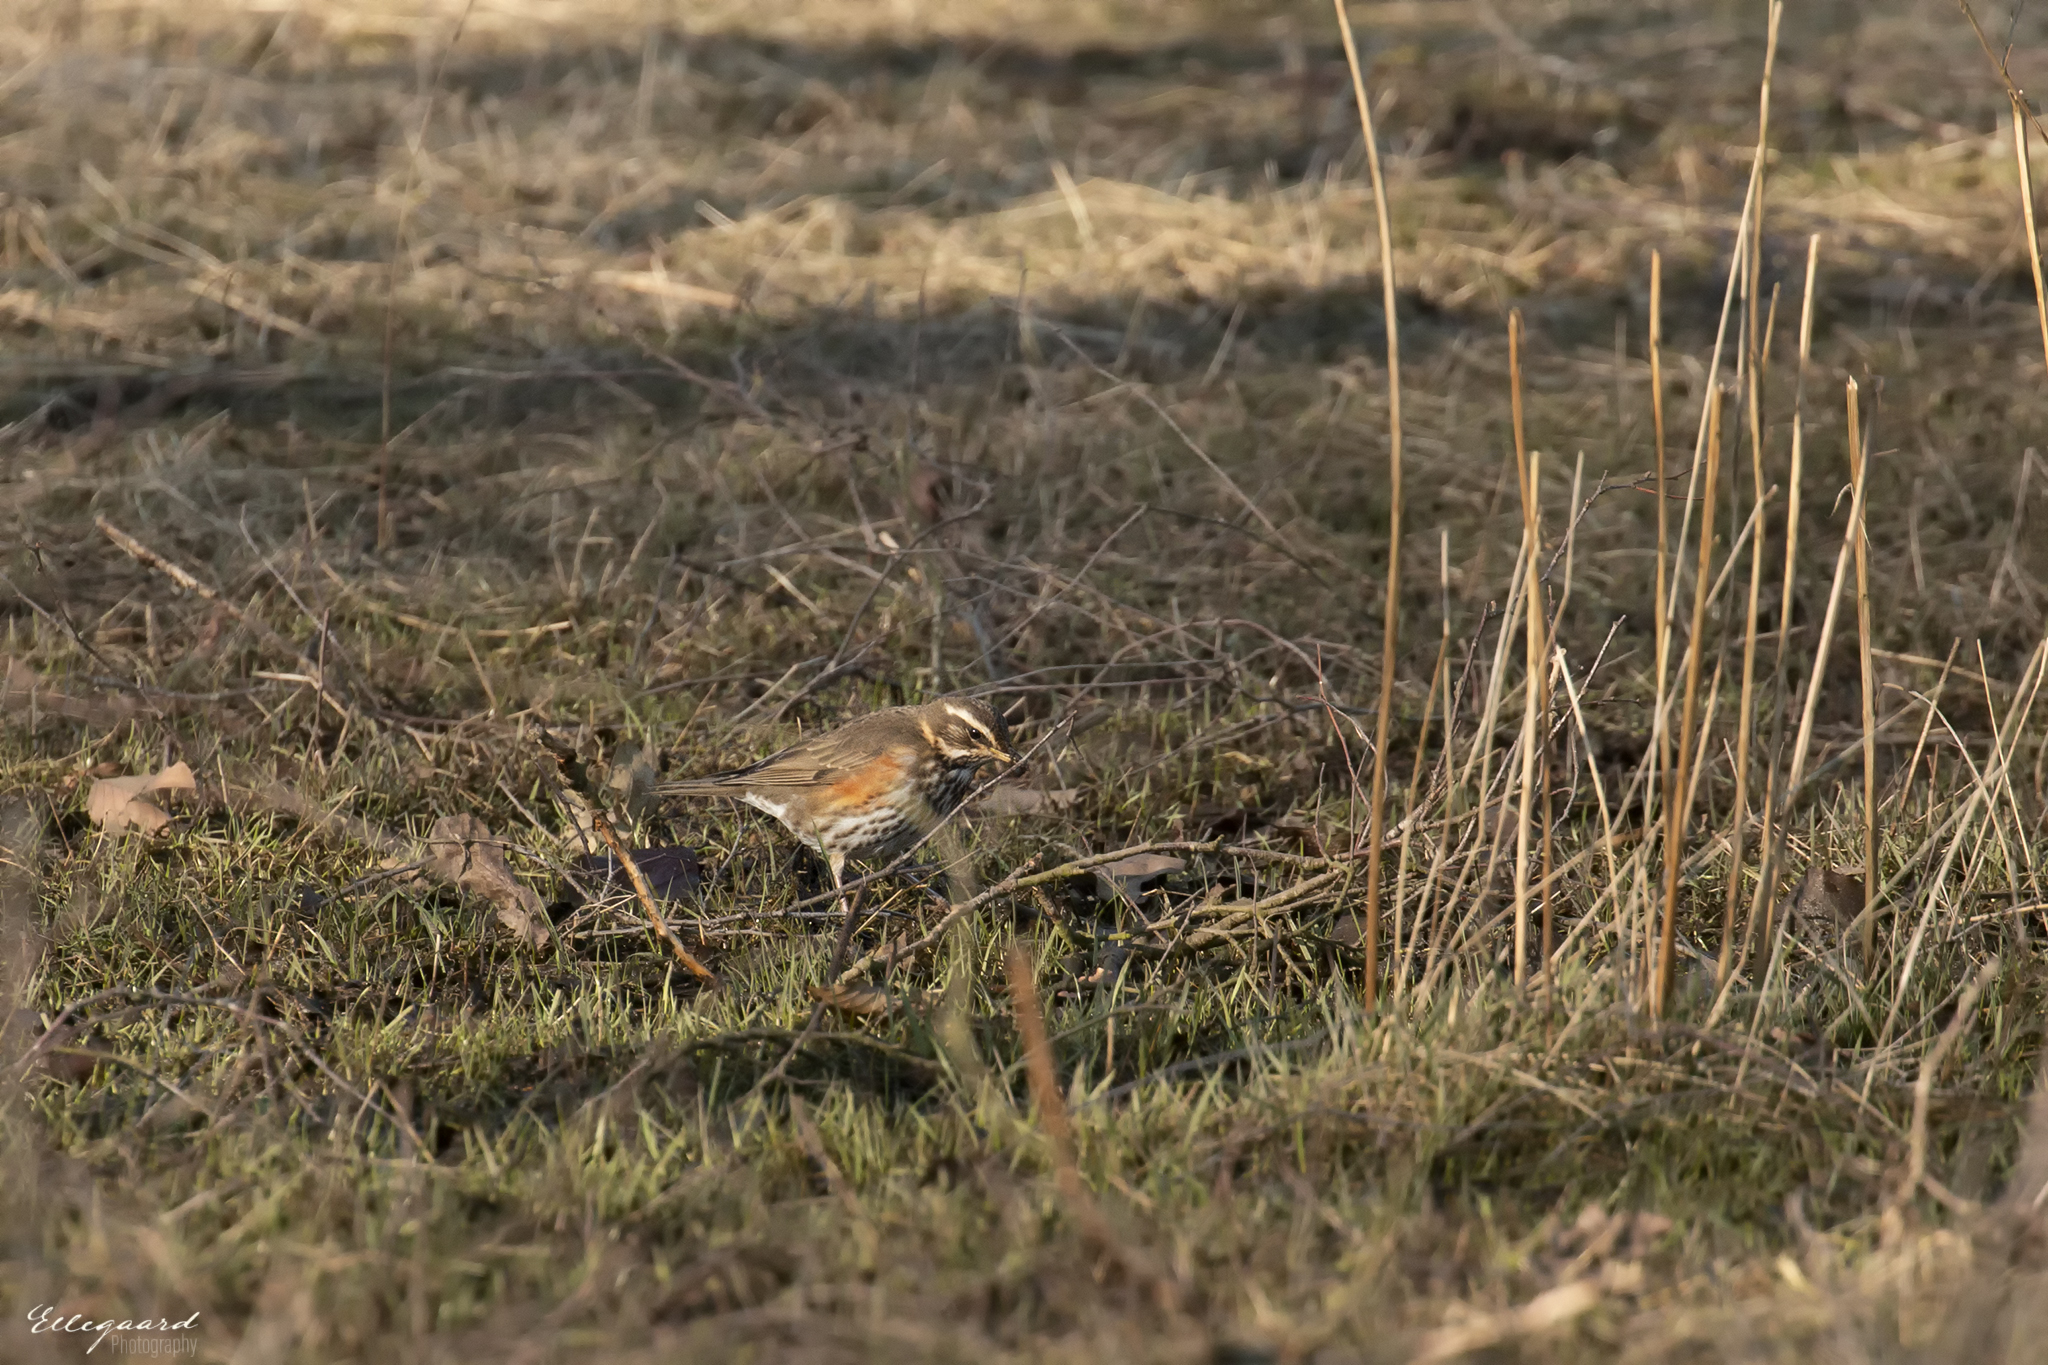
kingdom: Animalia
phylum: Chordata
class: Aves
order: Passeriformes
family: Turdidae
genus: Turdus
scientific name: Turdus iliacus
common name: Redwing
